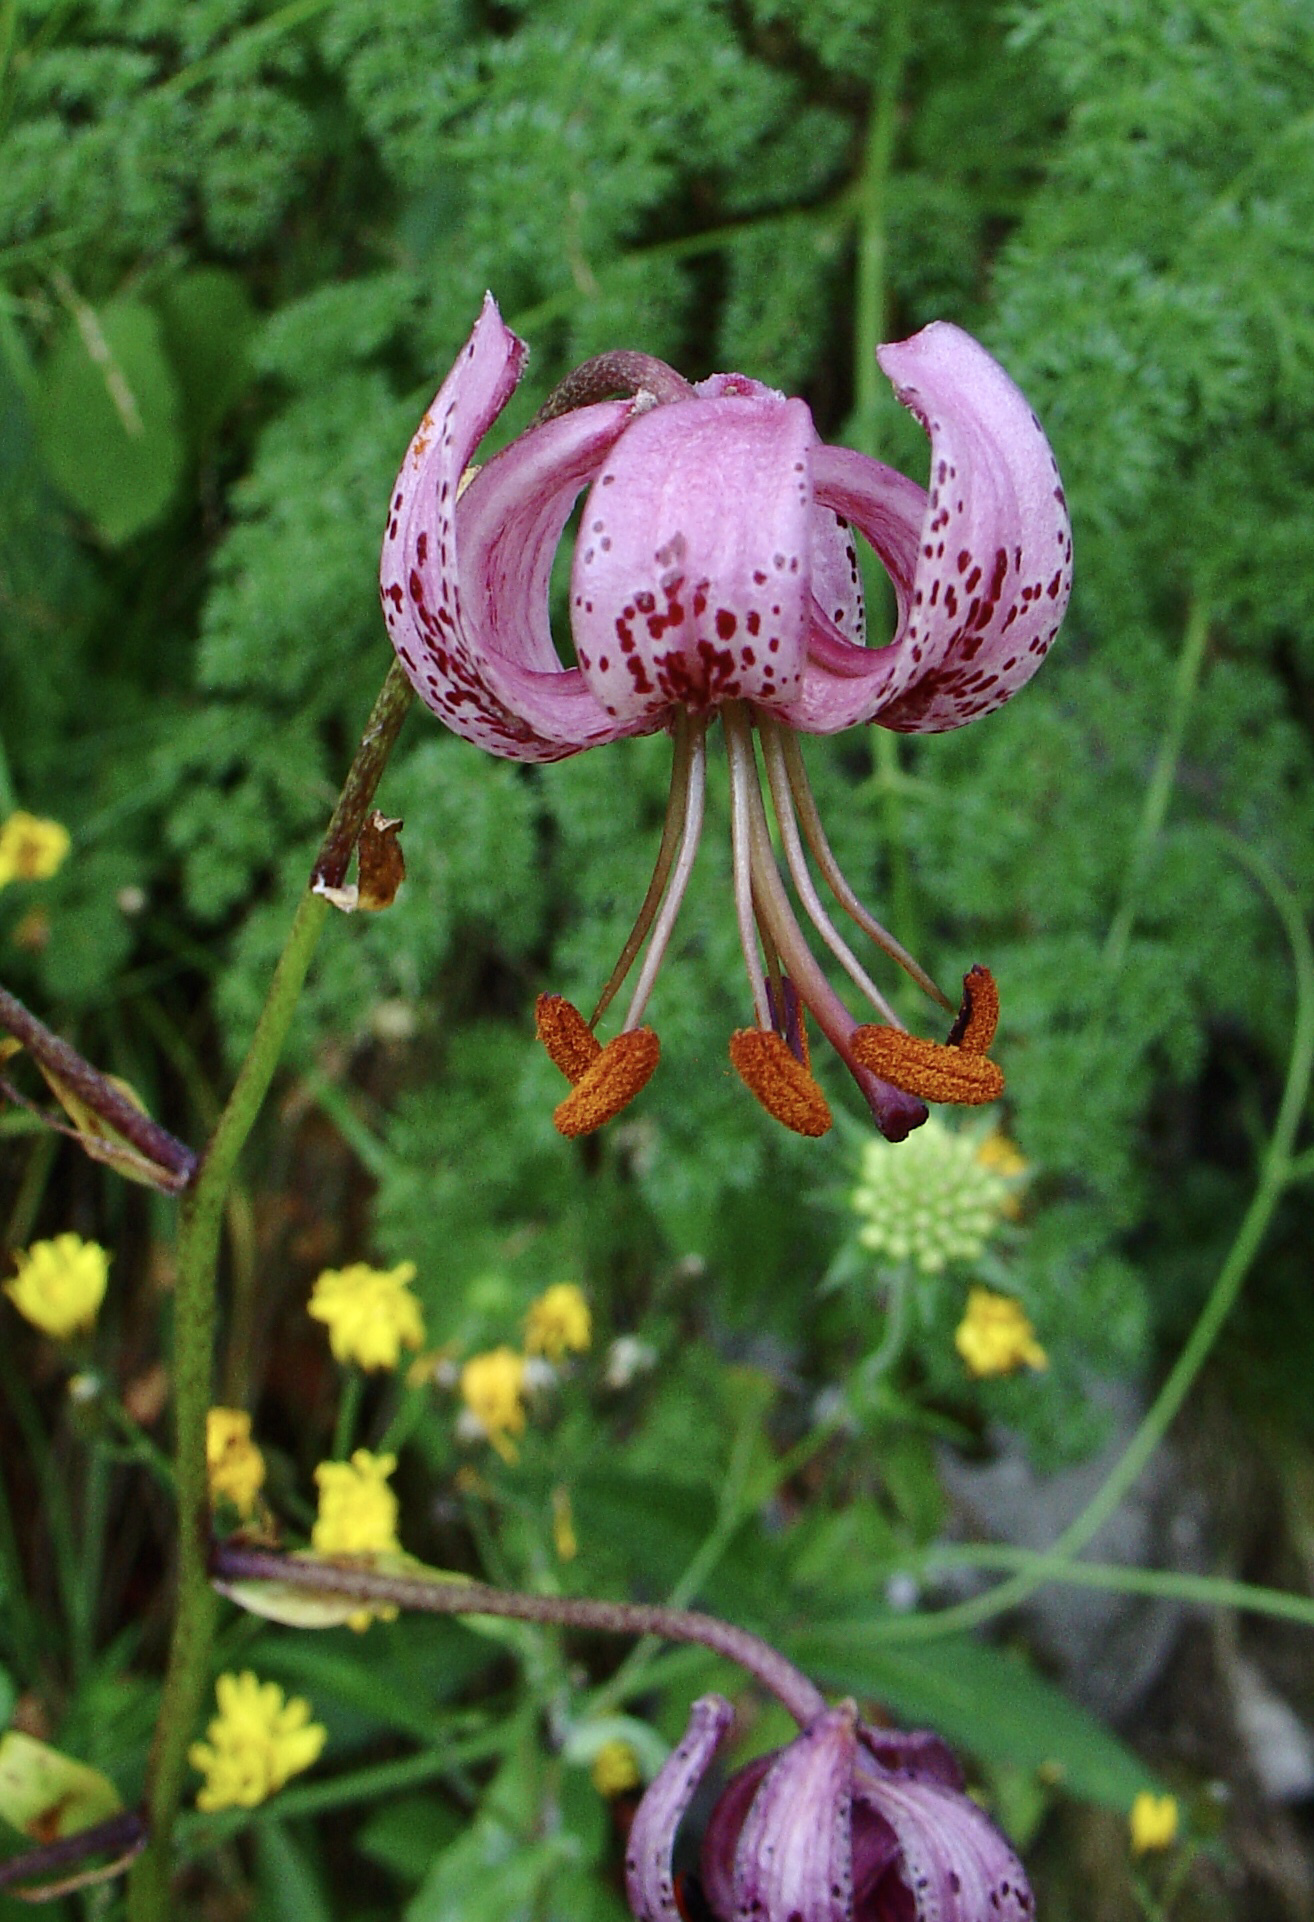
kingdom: Plantae
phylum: Tracheophyta
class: Liliopsida
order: Liliales
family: Liliaceae
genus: Lilium
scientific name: Lilium martagon
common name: Martagon lily
